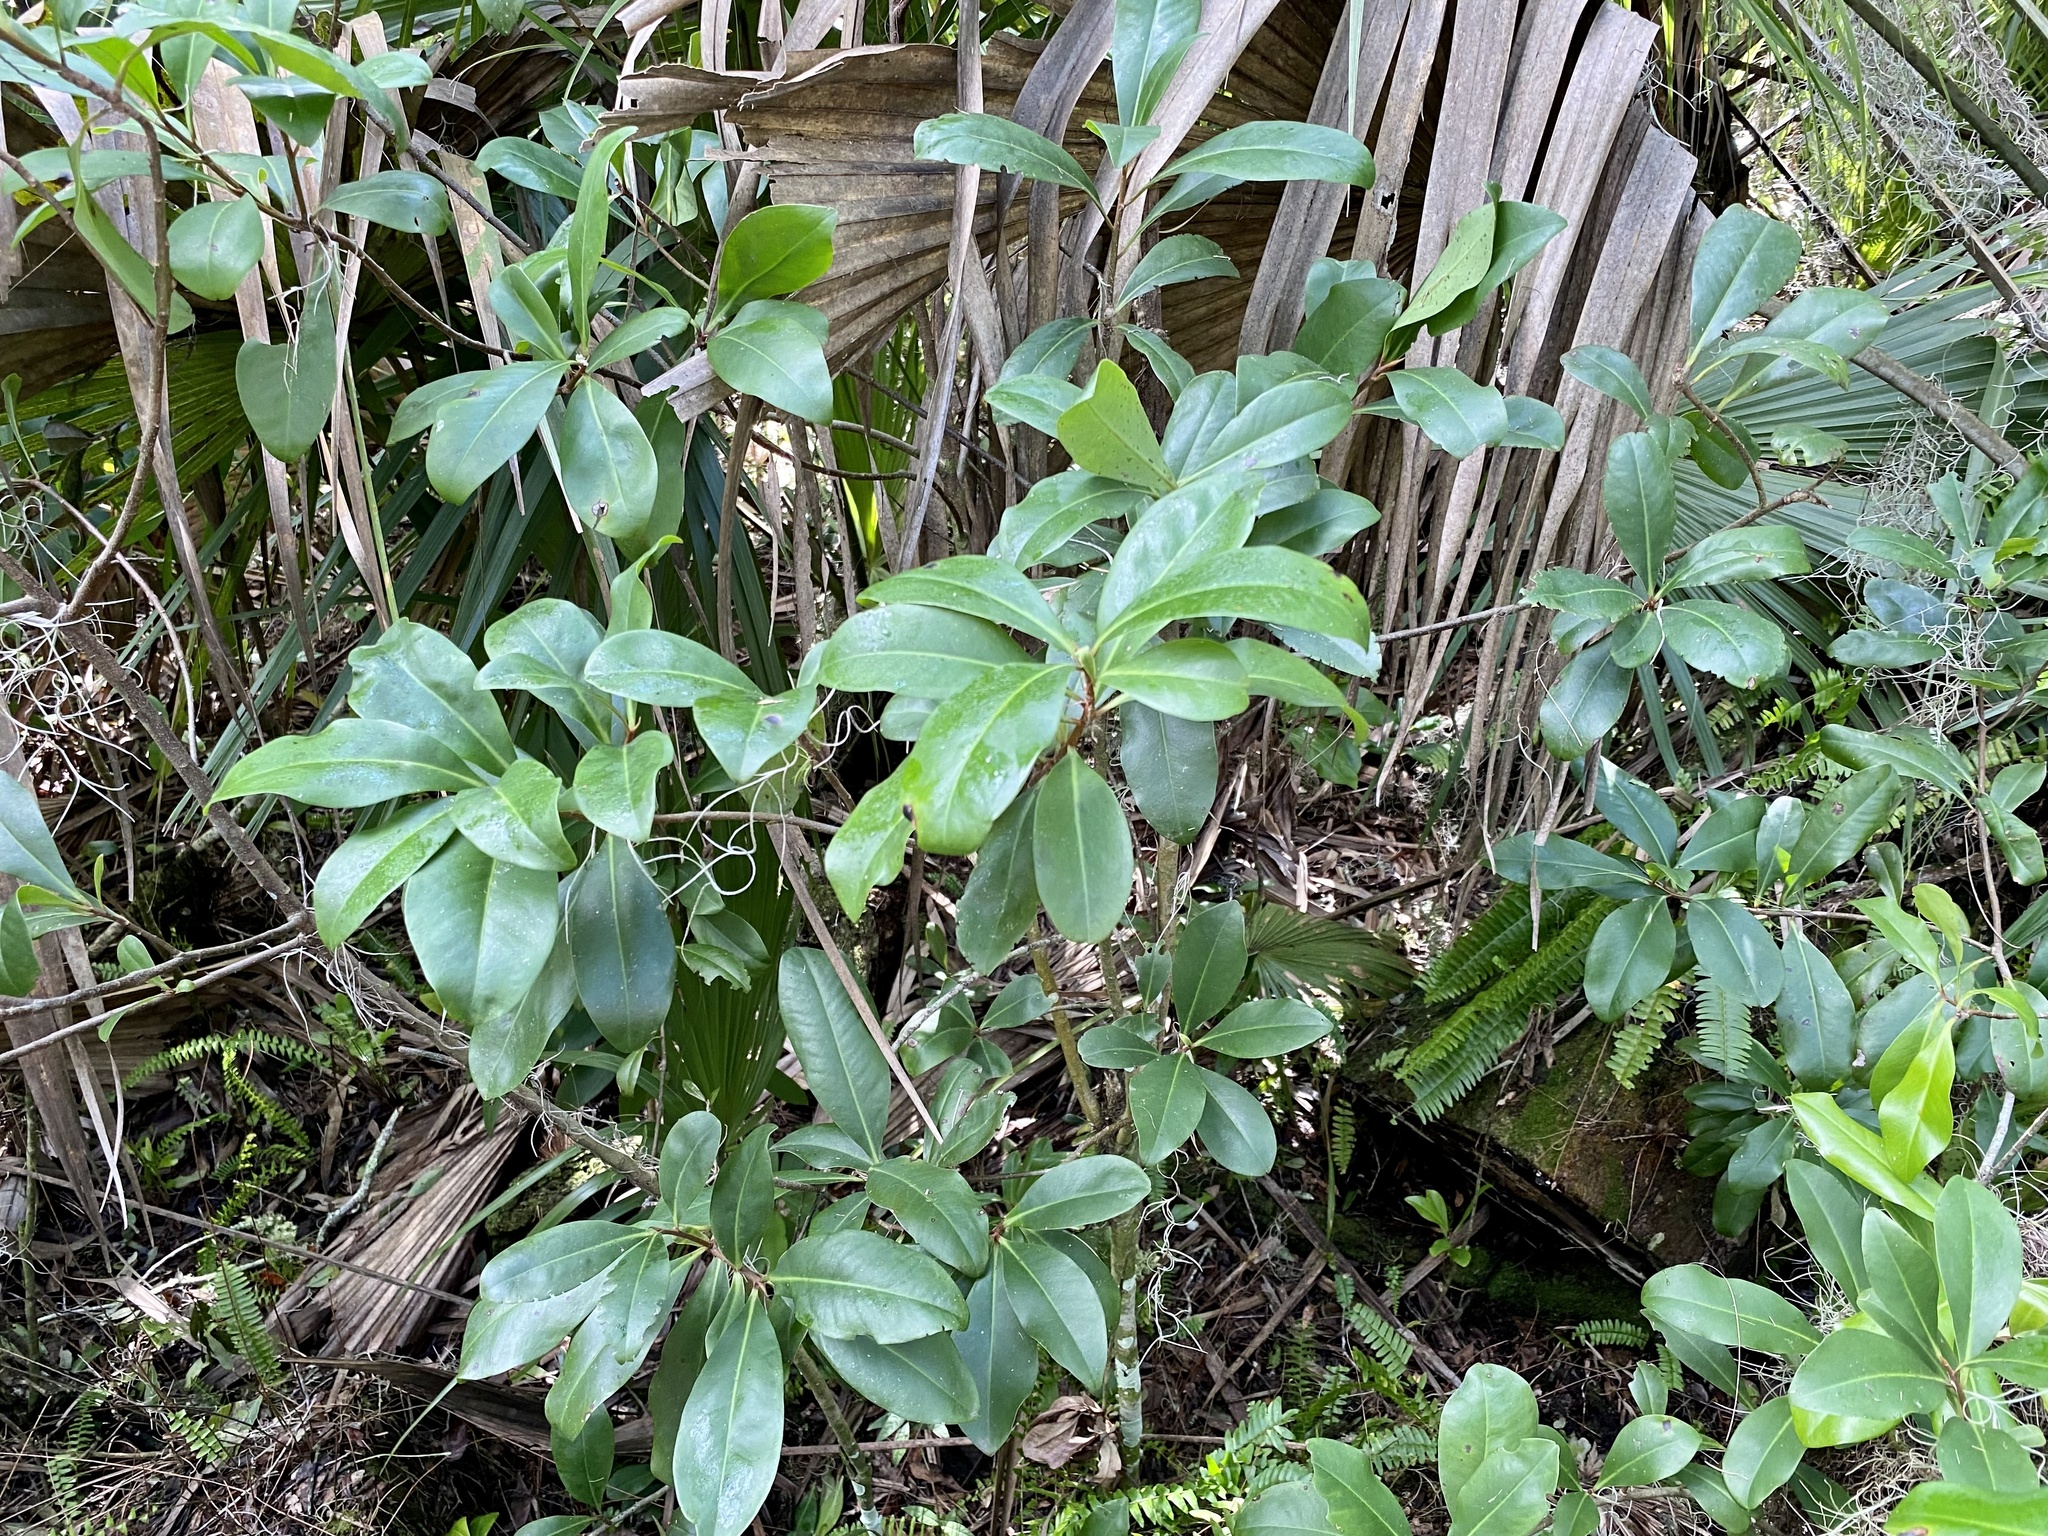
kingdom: Plantae
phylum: Tracheophyta
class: Magnoliopsida
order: Ericales
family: Primulaceae
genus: Myrsine
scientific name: Myrsine floridana
